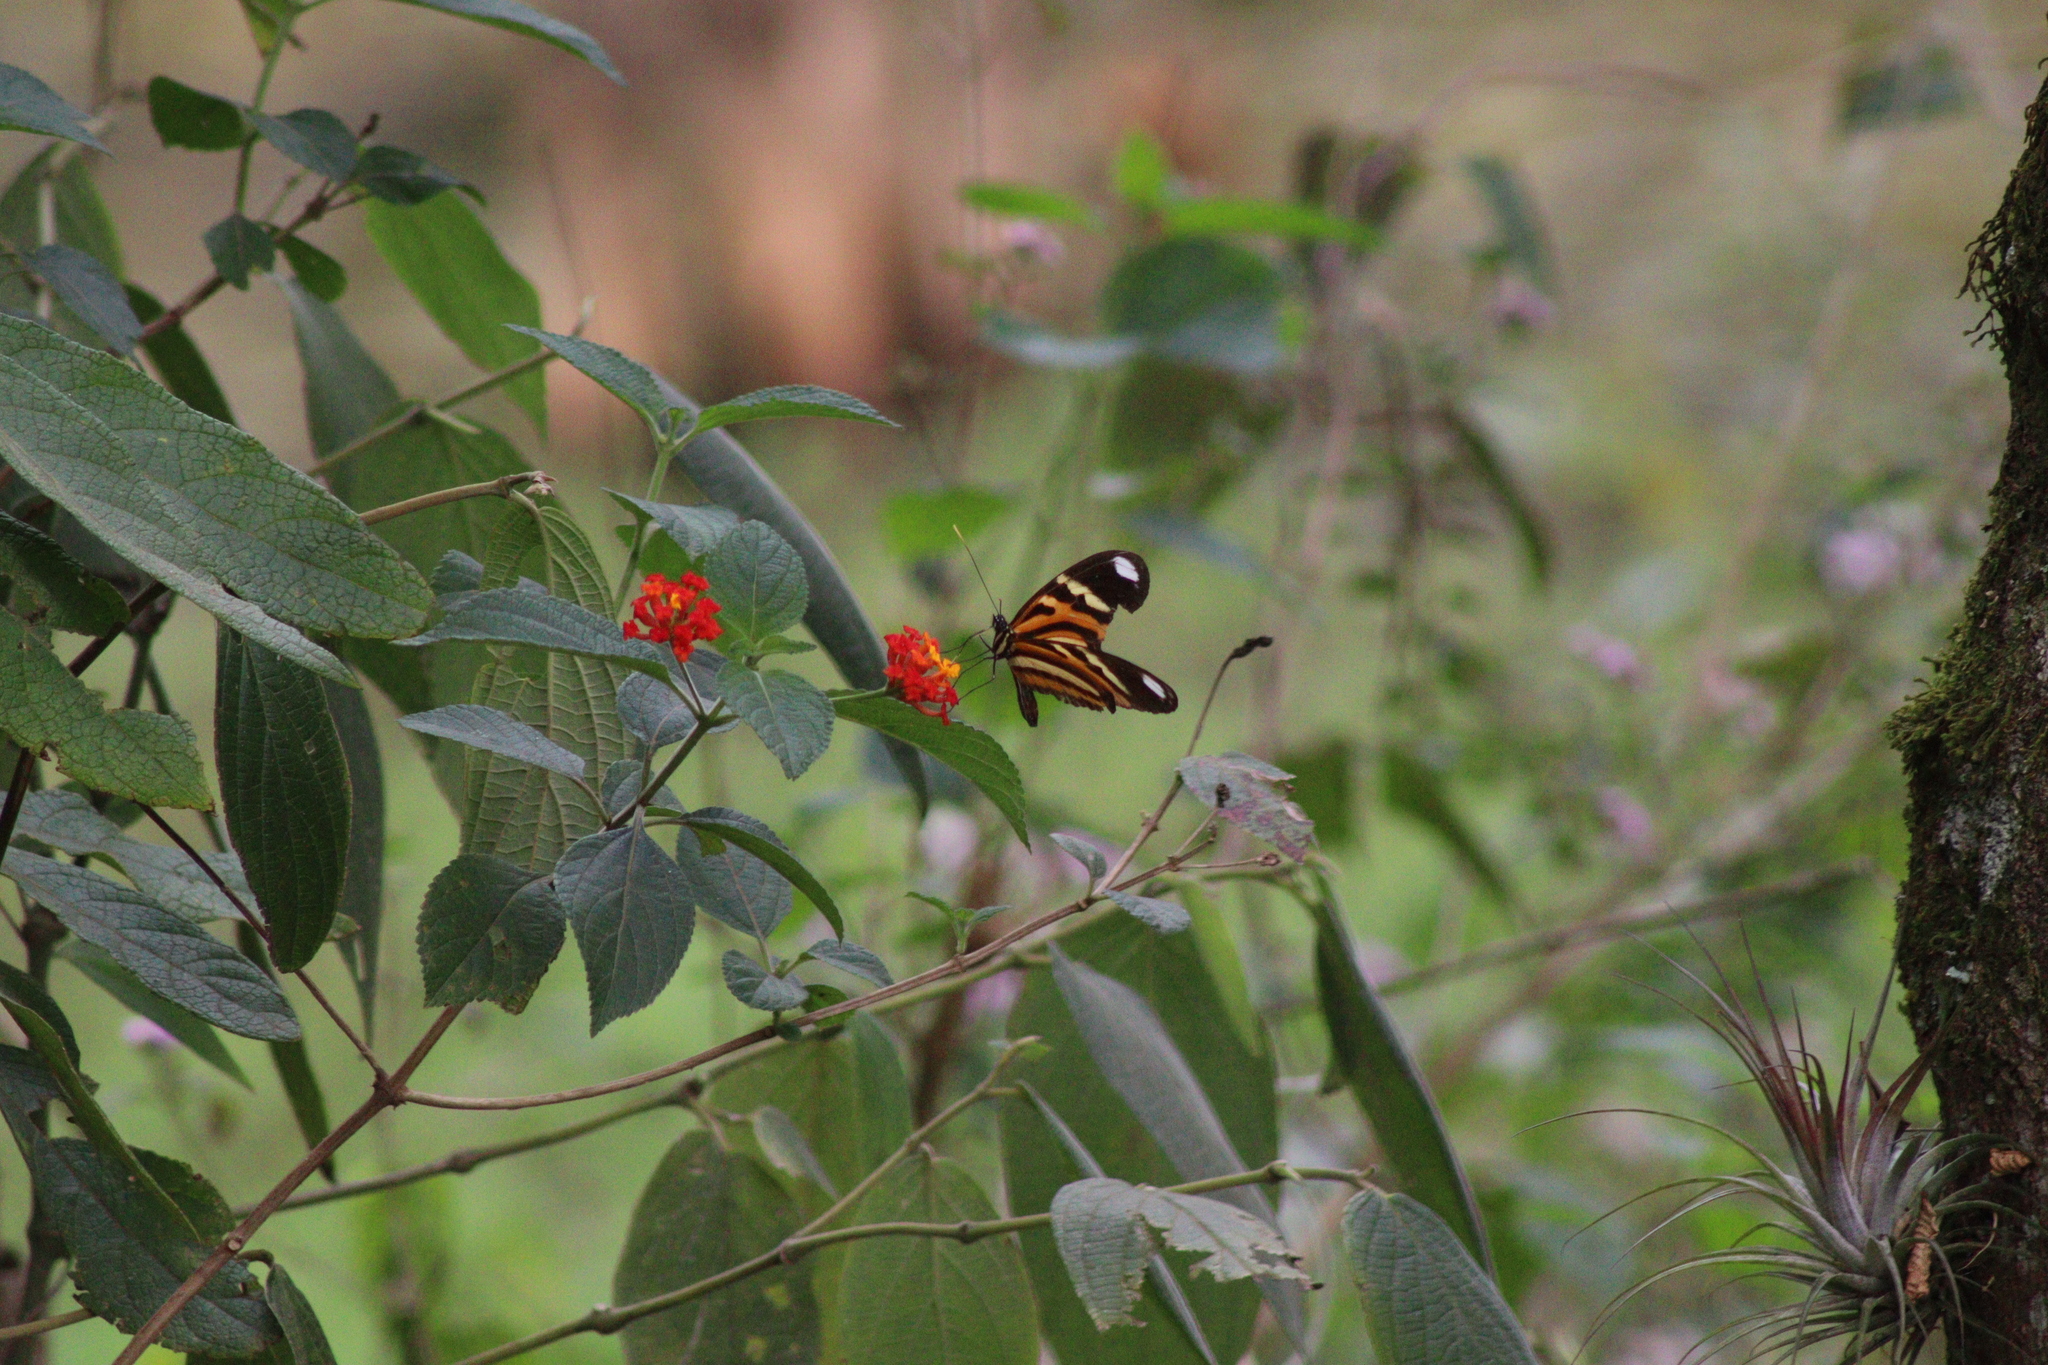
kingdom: Animalia
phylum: Arthropoda
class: Insecta
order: Lepidoptera
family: Nymphalidae
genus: Heliconius
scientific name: Heliconius ethilla
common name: Ethilia longwing
